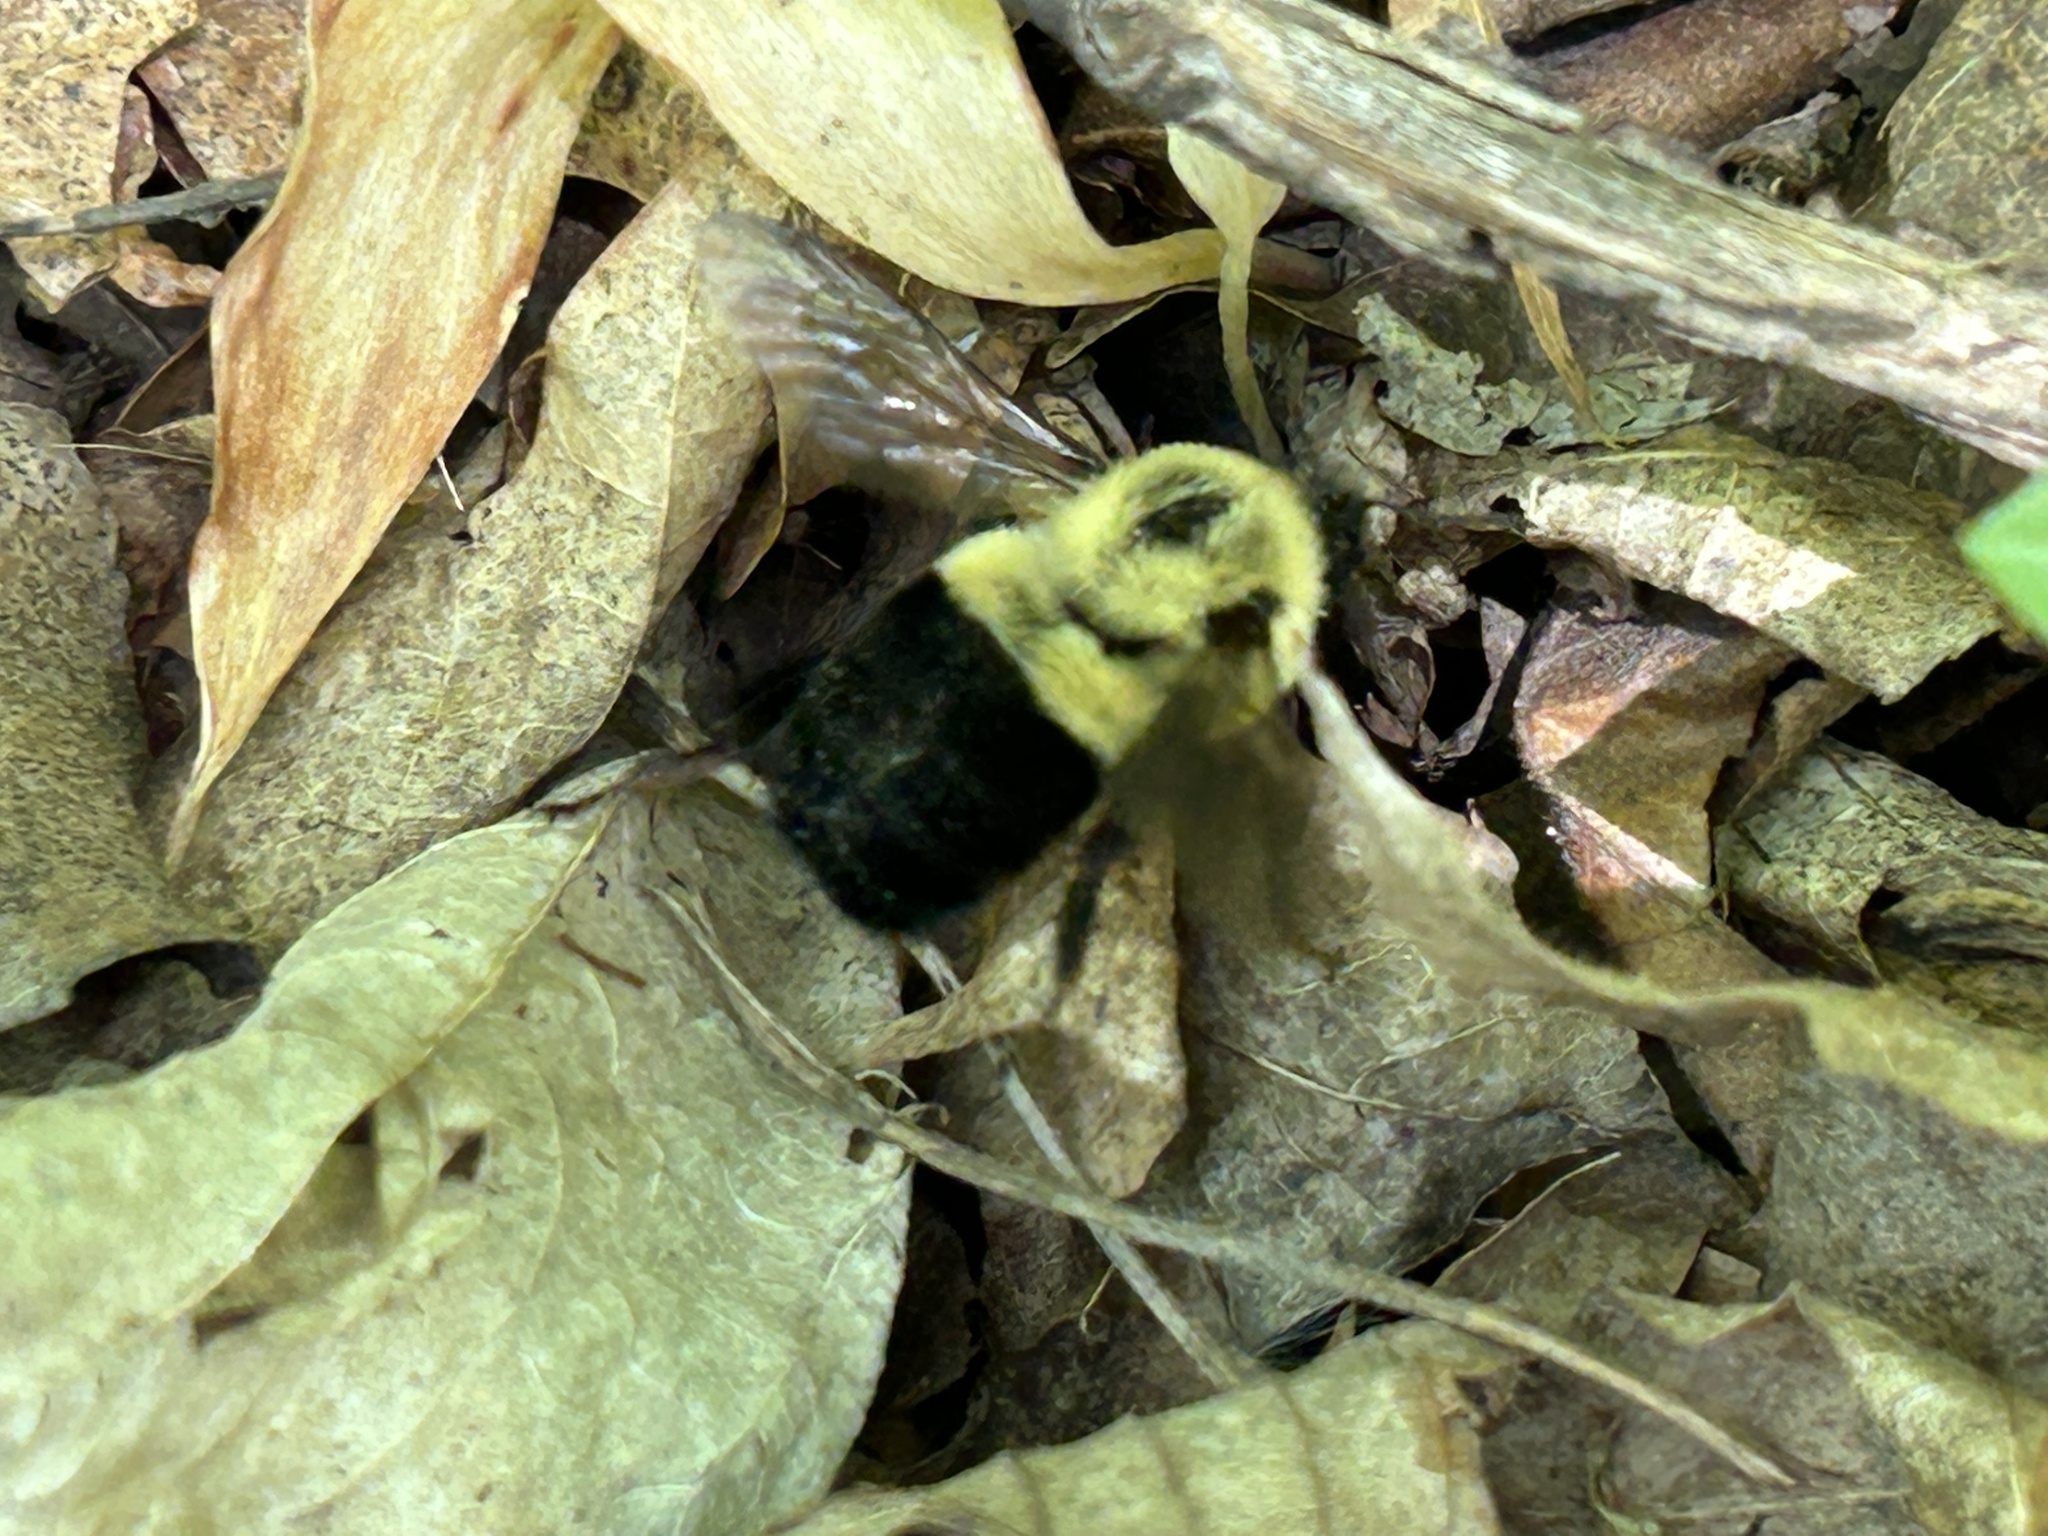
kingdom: Animalia
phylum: Arthropoda
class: Insecta
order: Hymenoptera
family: Apidae
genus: Bombus
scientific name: Bombus impatiens
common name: Common eastern bumble bee
